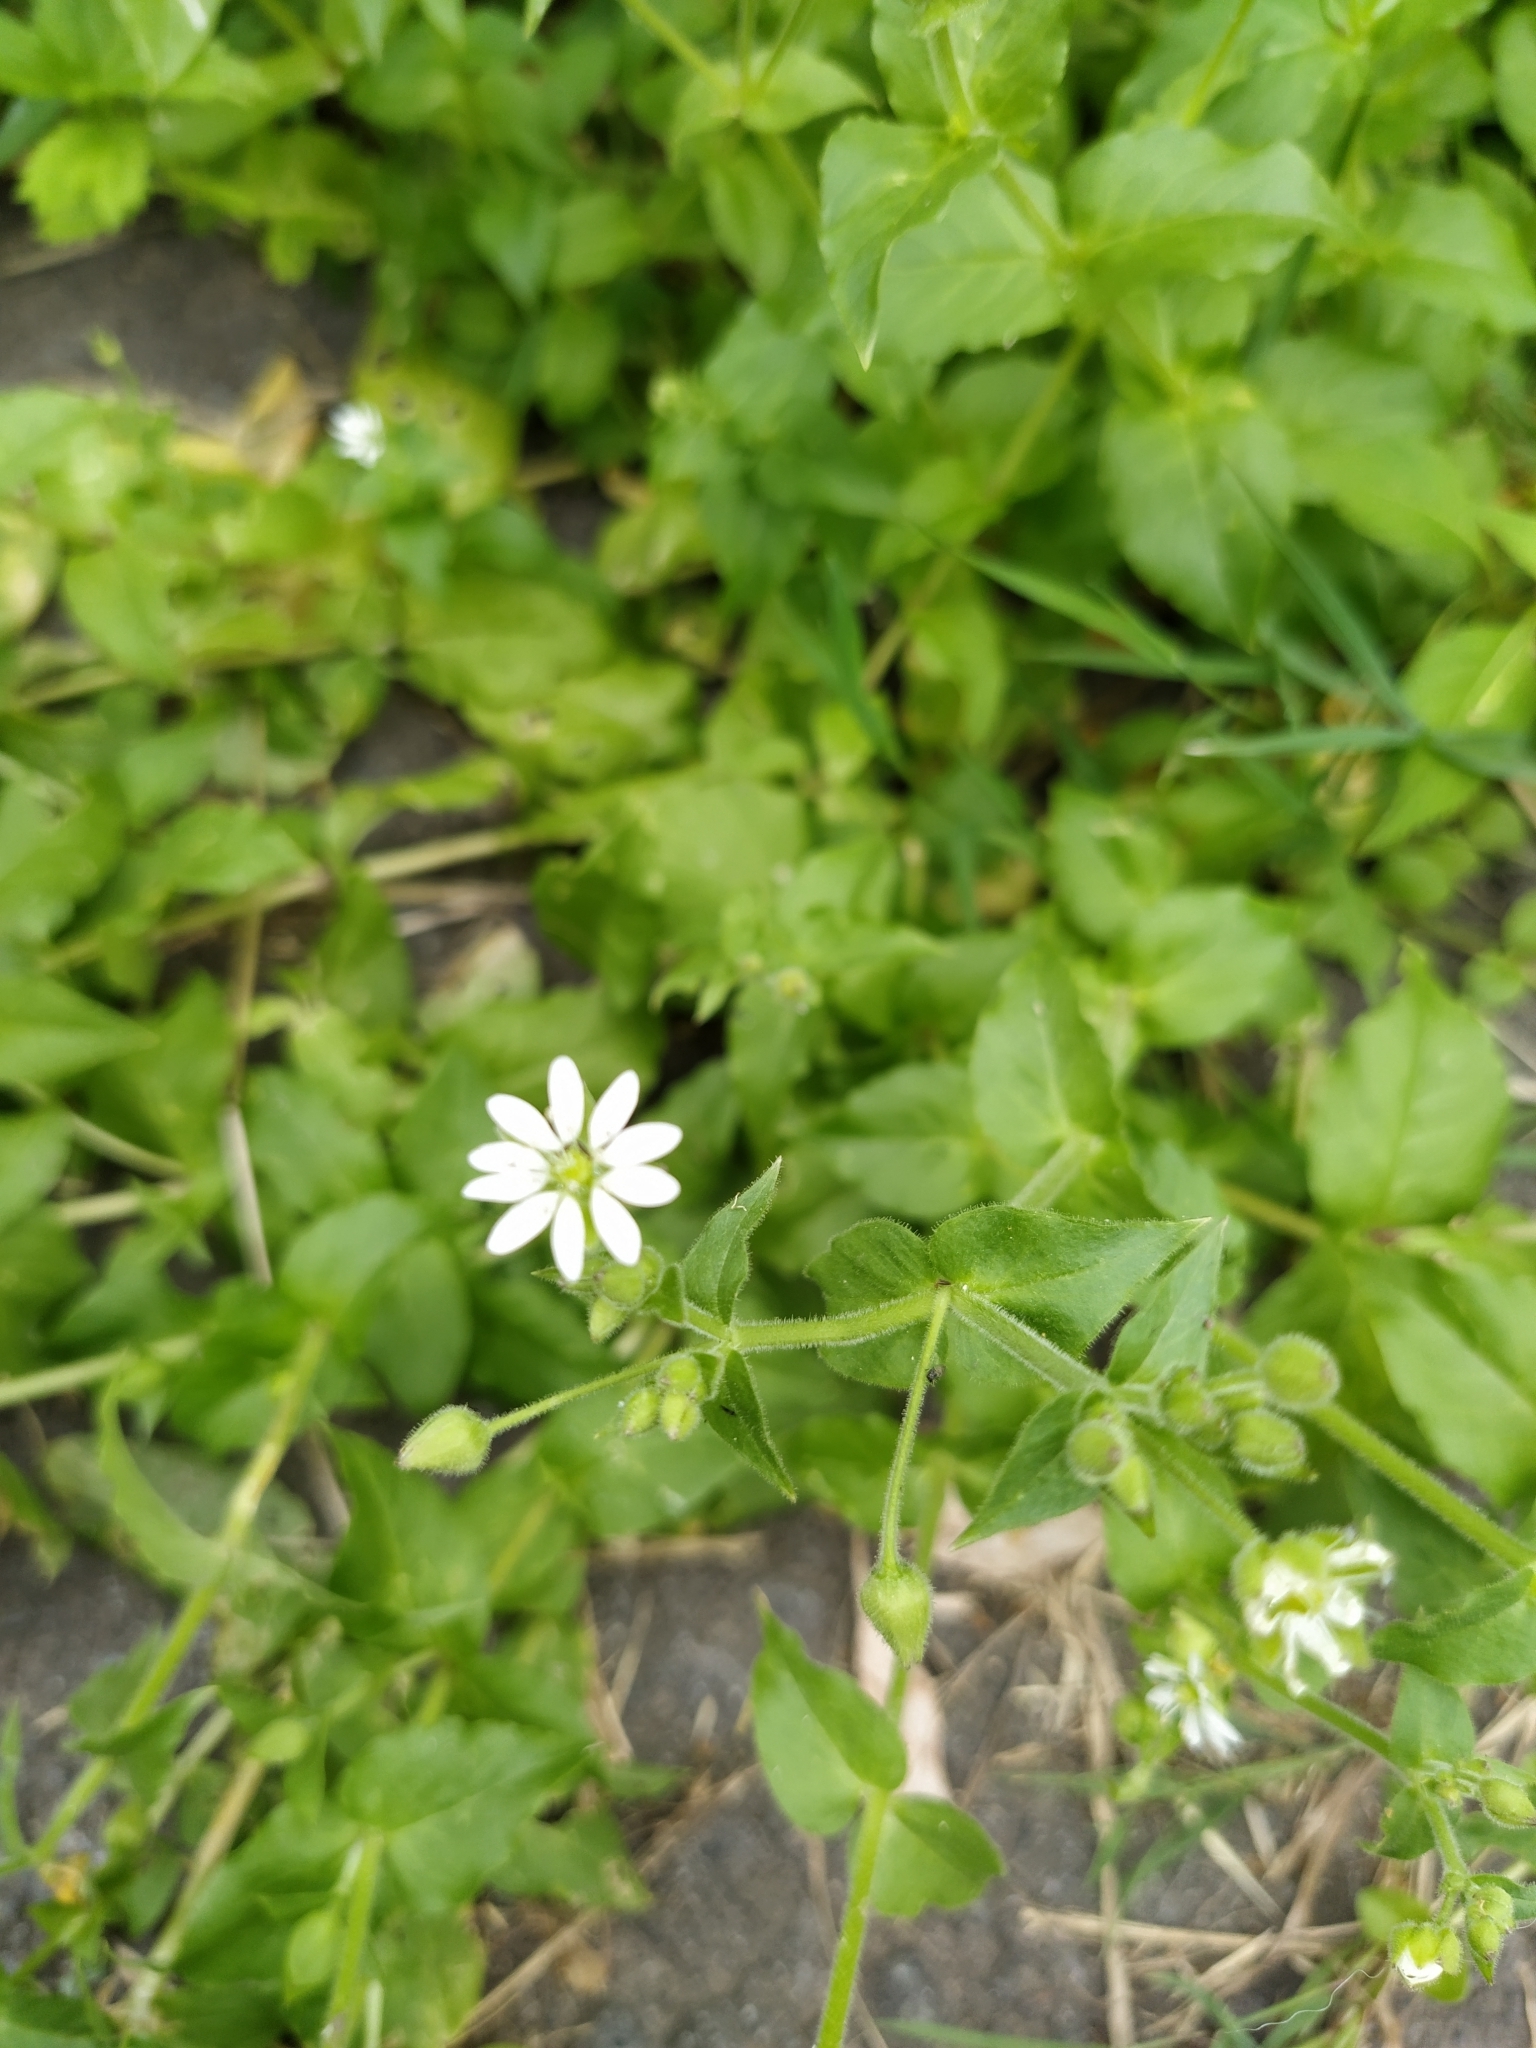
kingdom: Plantae
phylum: Tracheophyta
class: Magnoliopsida
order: Caryophyllales
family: Caryophyllaceae
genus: Stellaria
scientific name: Stellaria aquatica
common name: Water chickweed
